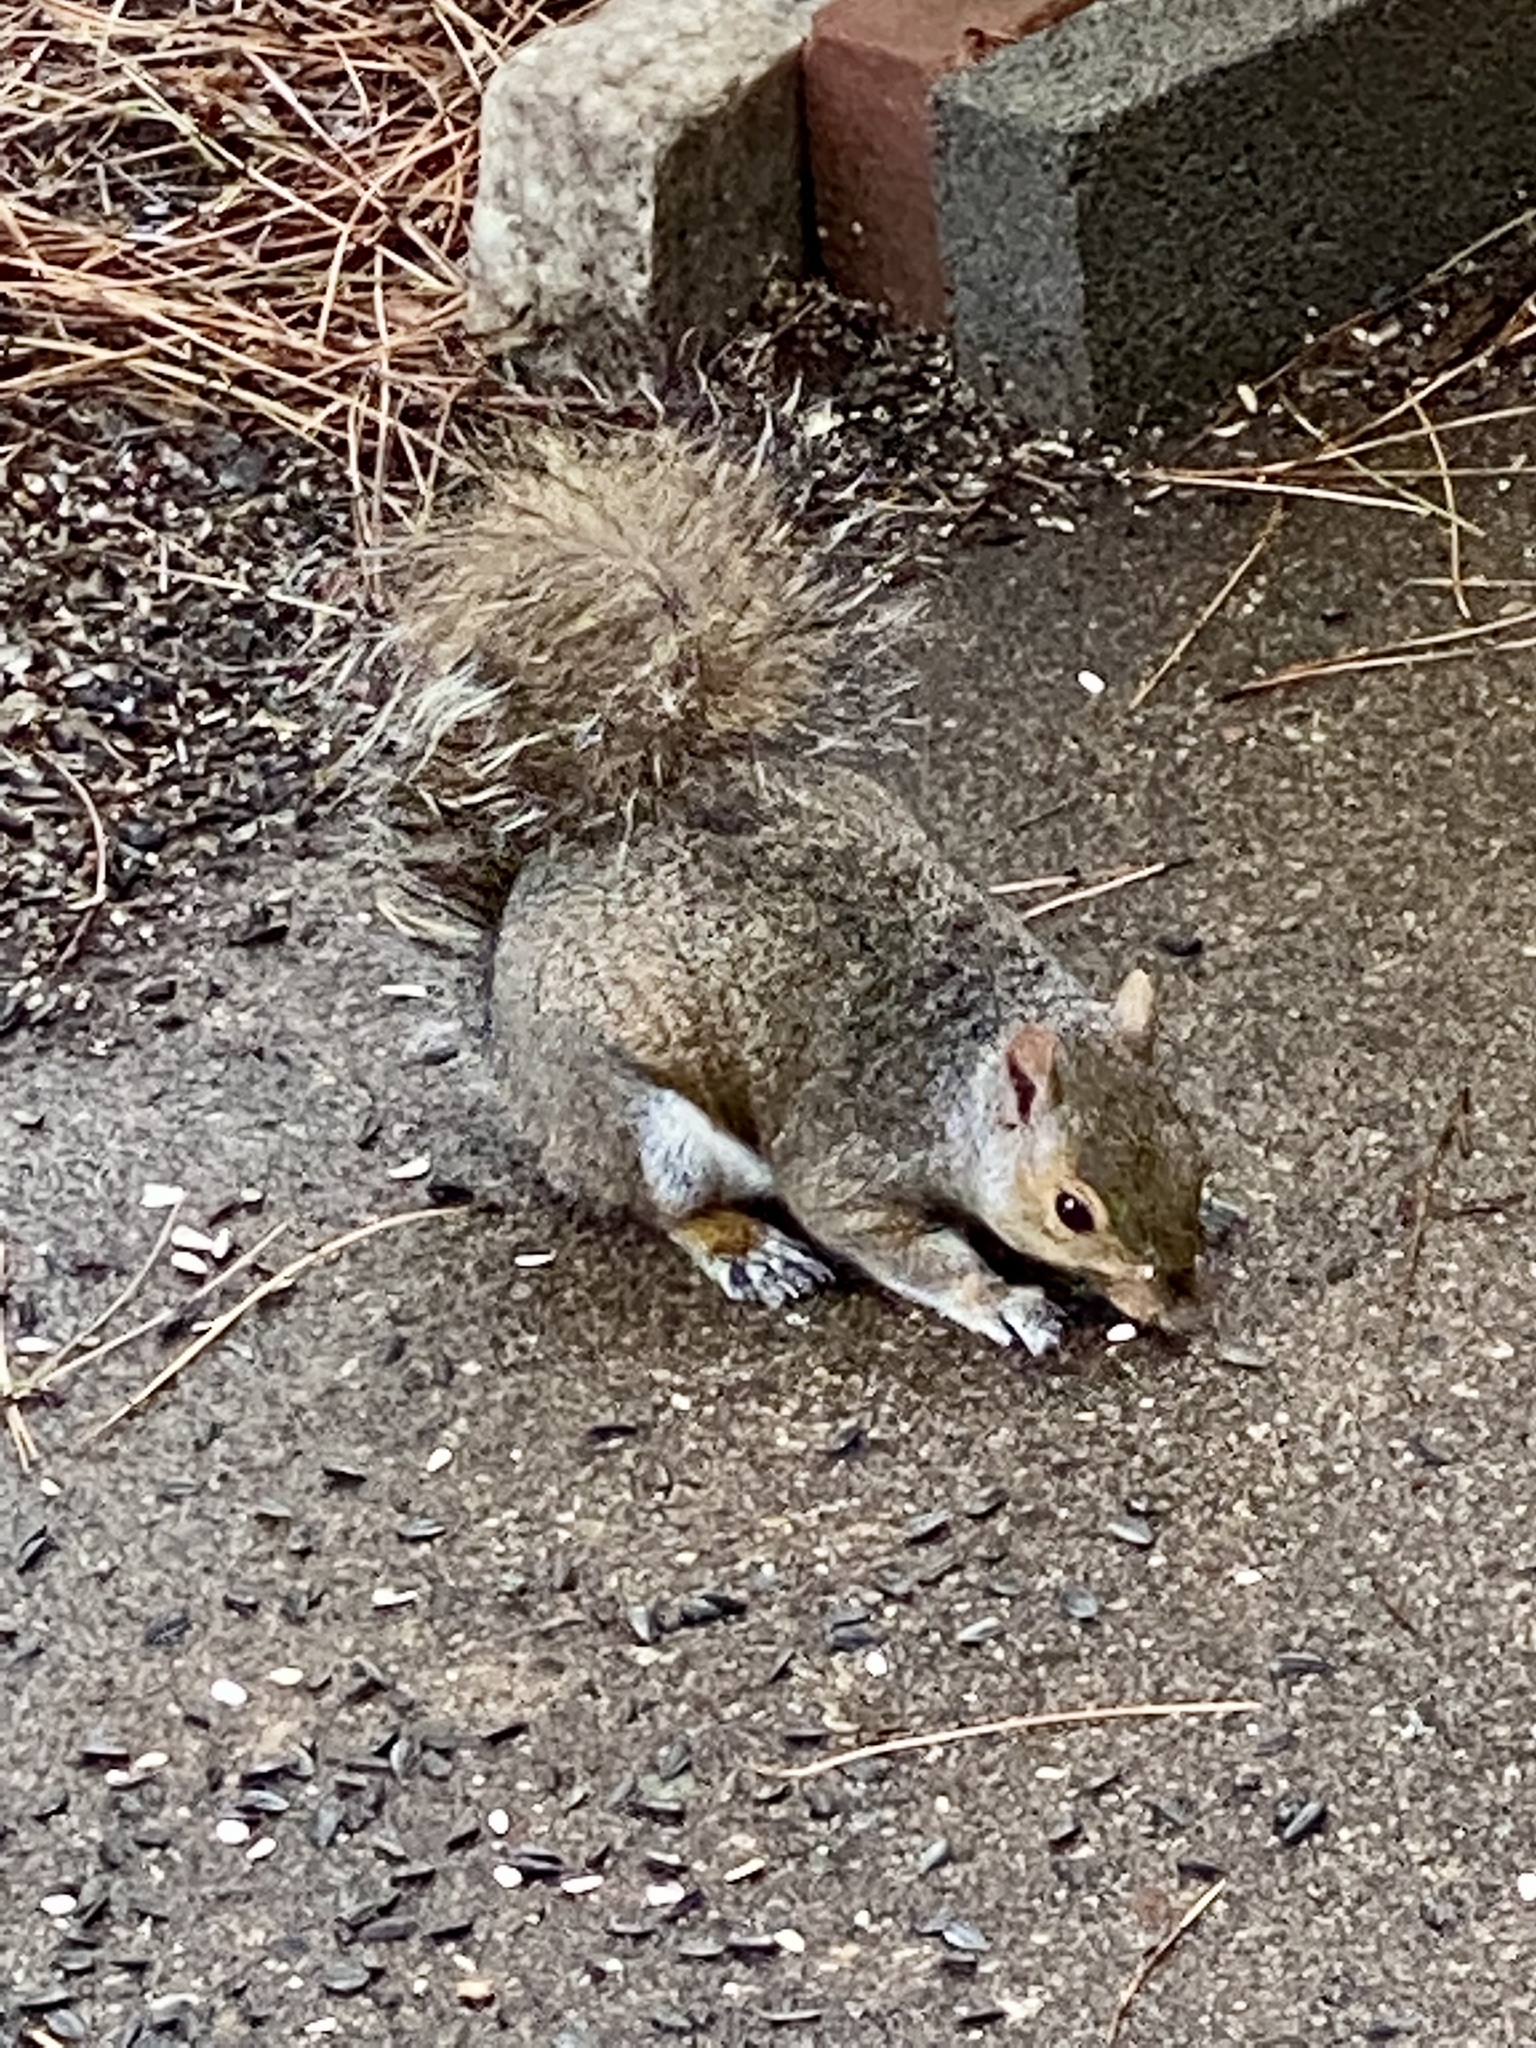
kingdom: Animalia
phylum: Chordata
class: Mammalia
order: Rodentia
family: Sciuridae
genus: Sciurus
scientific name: Sciurus carolinensis
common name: Eastern gray squirrel
